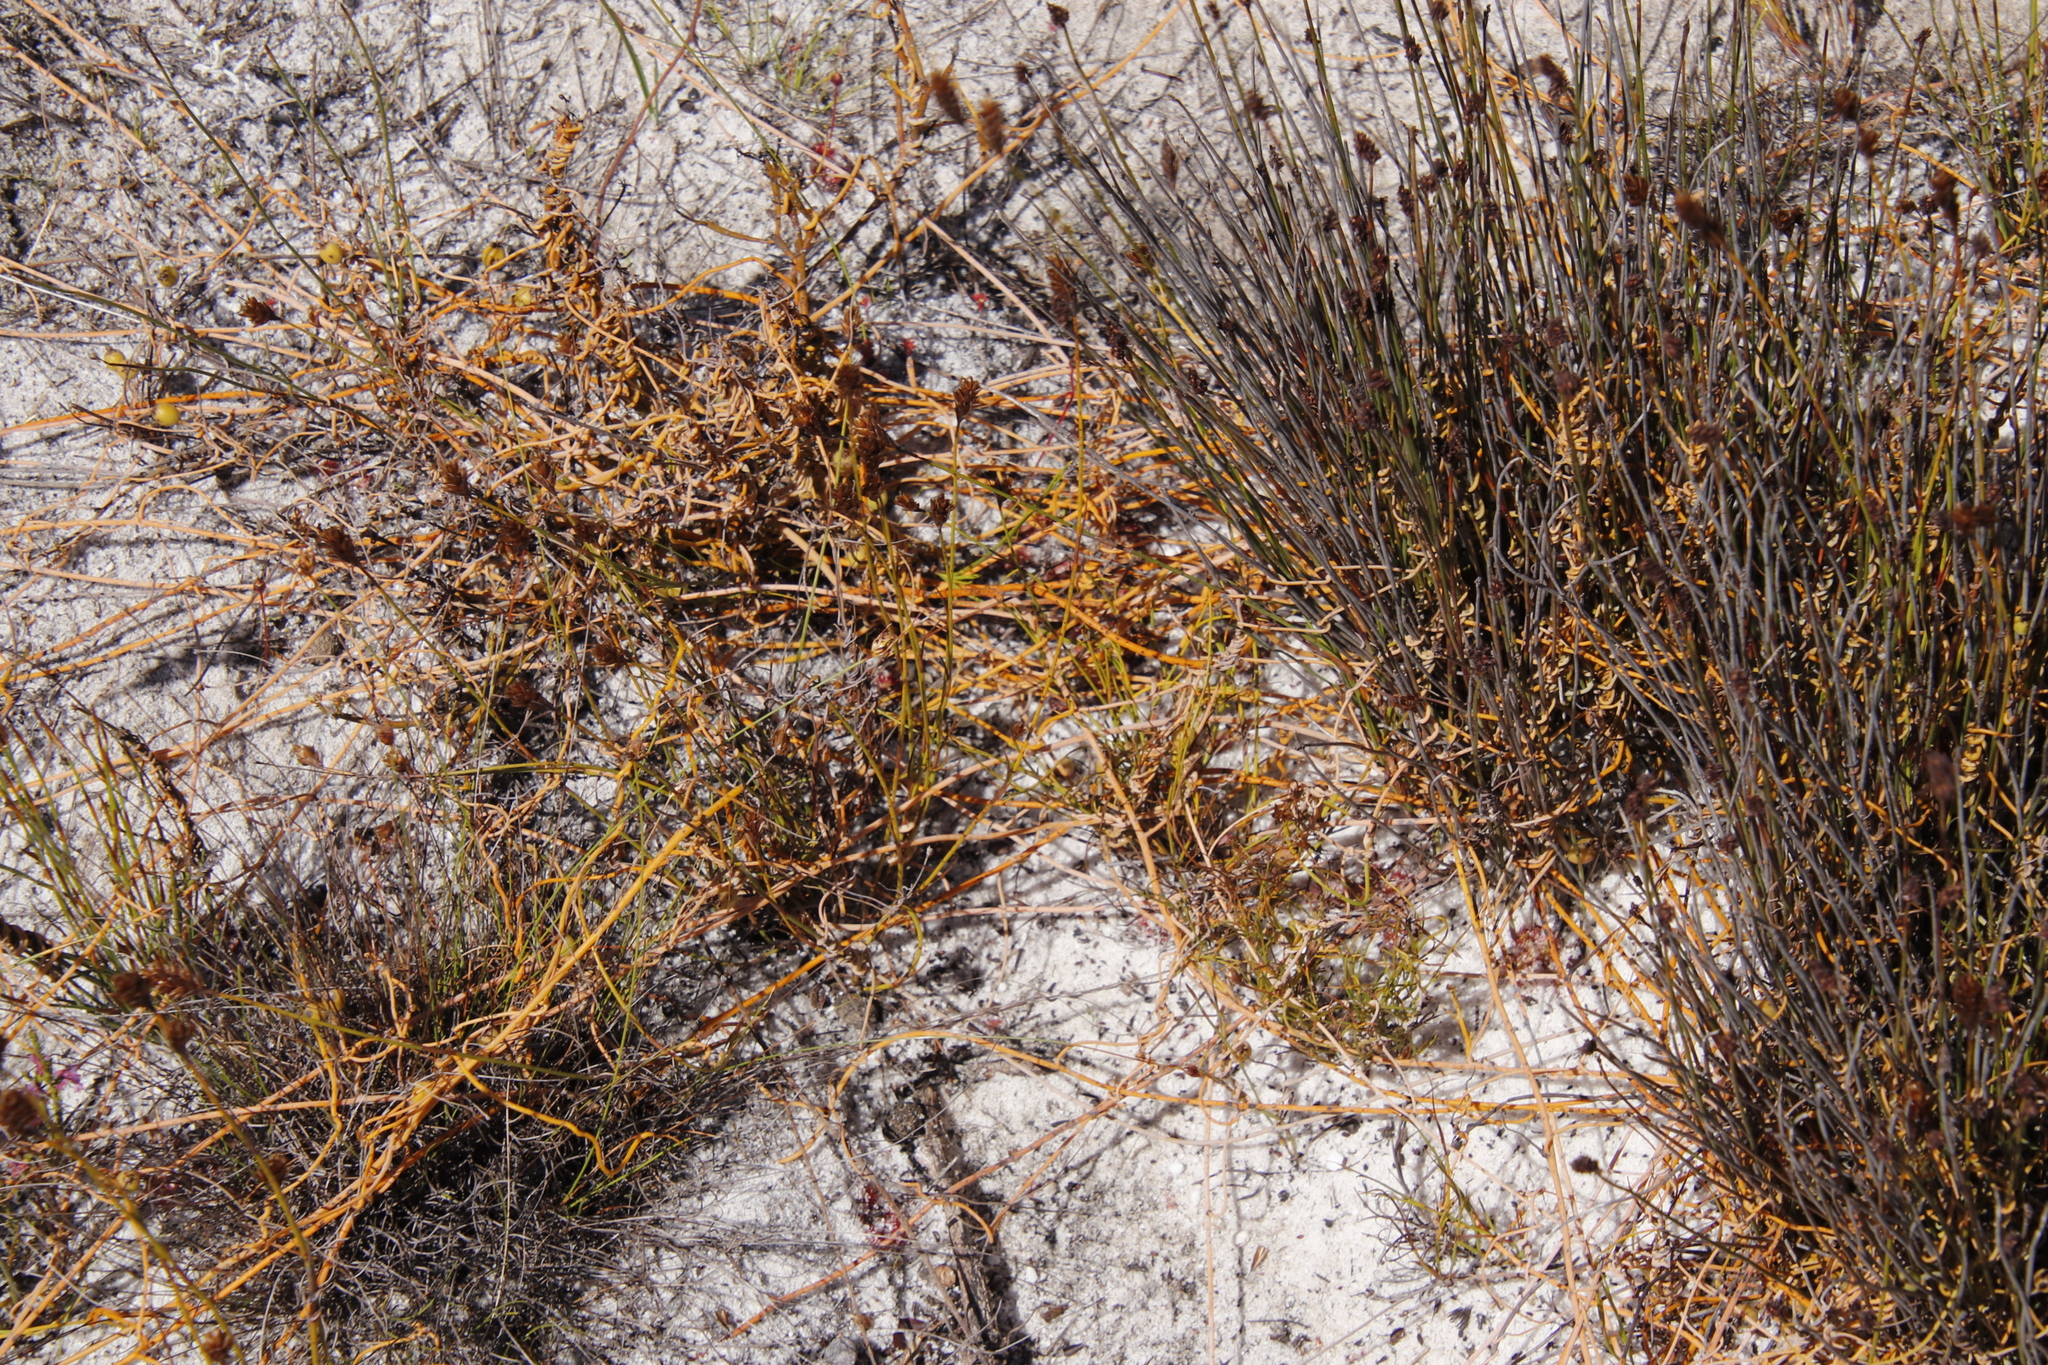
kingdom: Plantae
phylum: Tracheophyta
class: Magnoliopsida
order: Laurales
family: Lauraceae
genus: Cassytha
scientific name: Cassytha ciliolata
